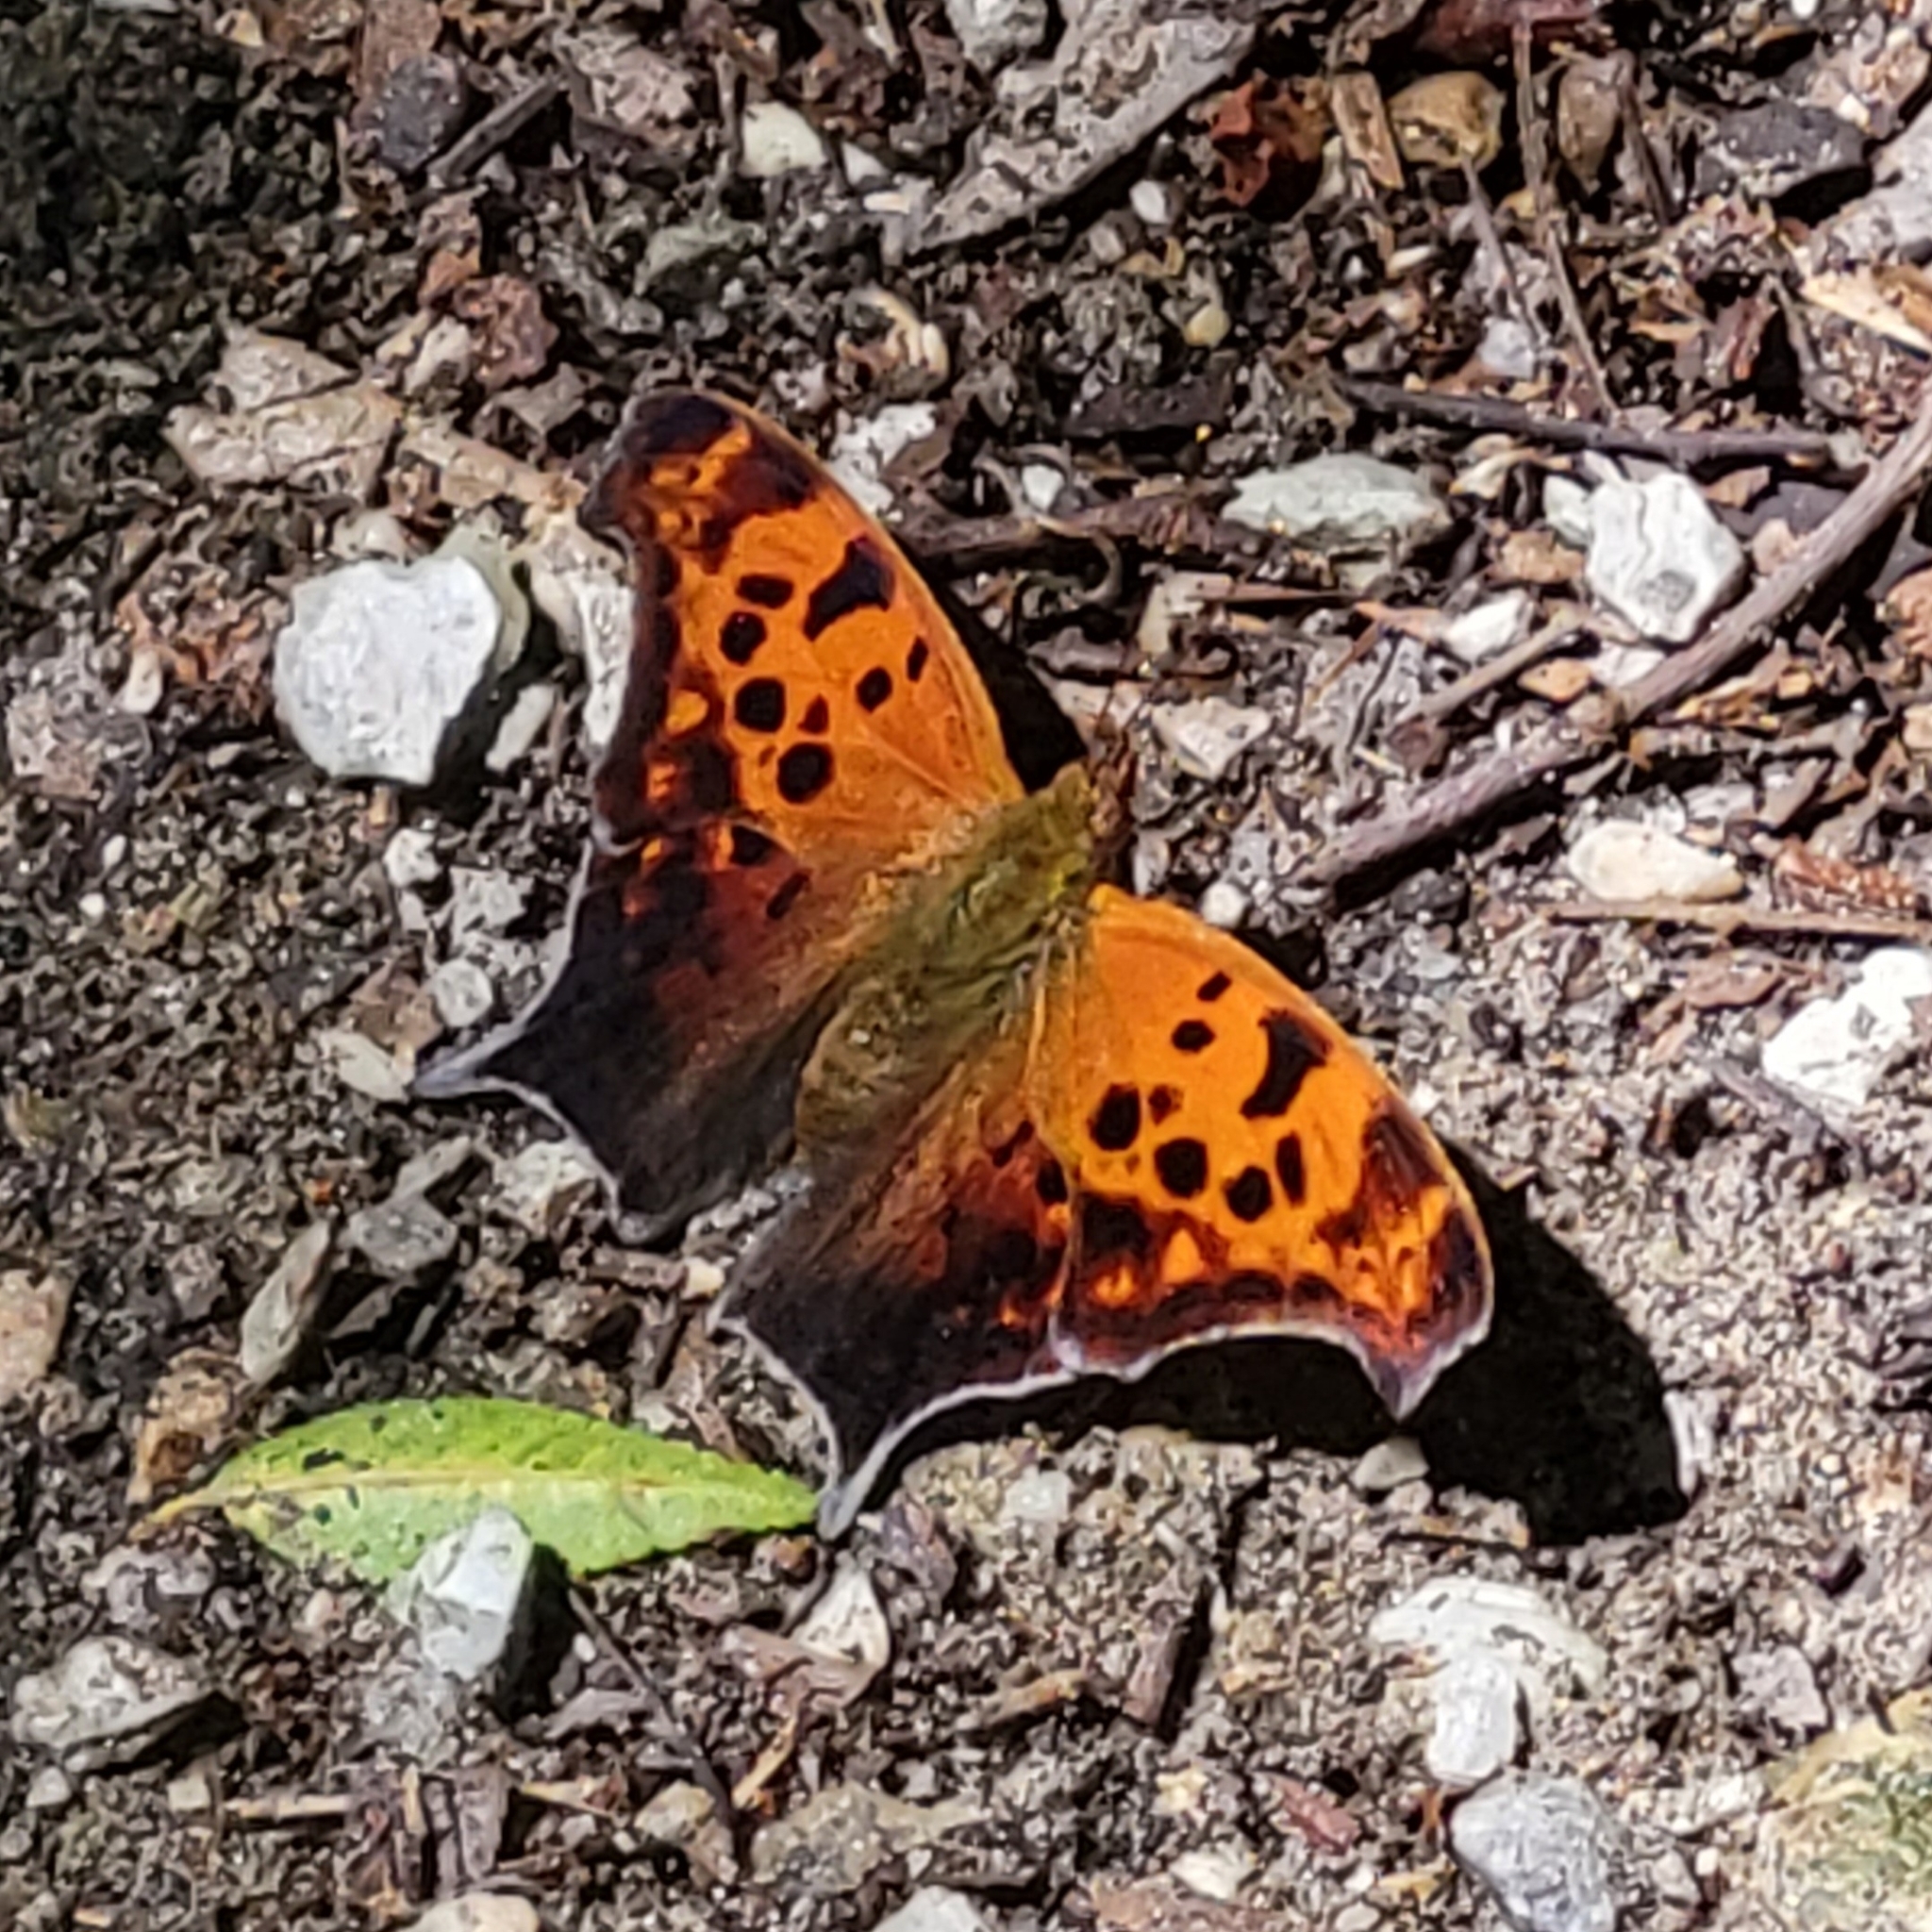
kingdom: Animalia
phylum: Arthropoda
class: Insecta
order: Lepidoptera
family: Nymphalidae
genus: Polygonia
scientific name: Polygonia interrogationis
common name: Question mark
